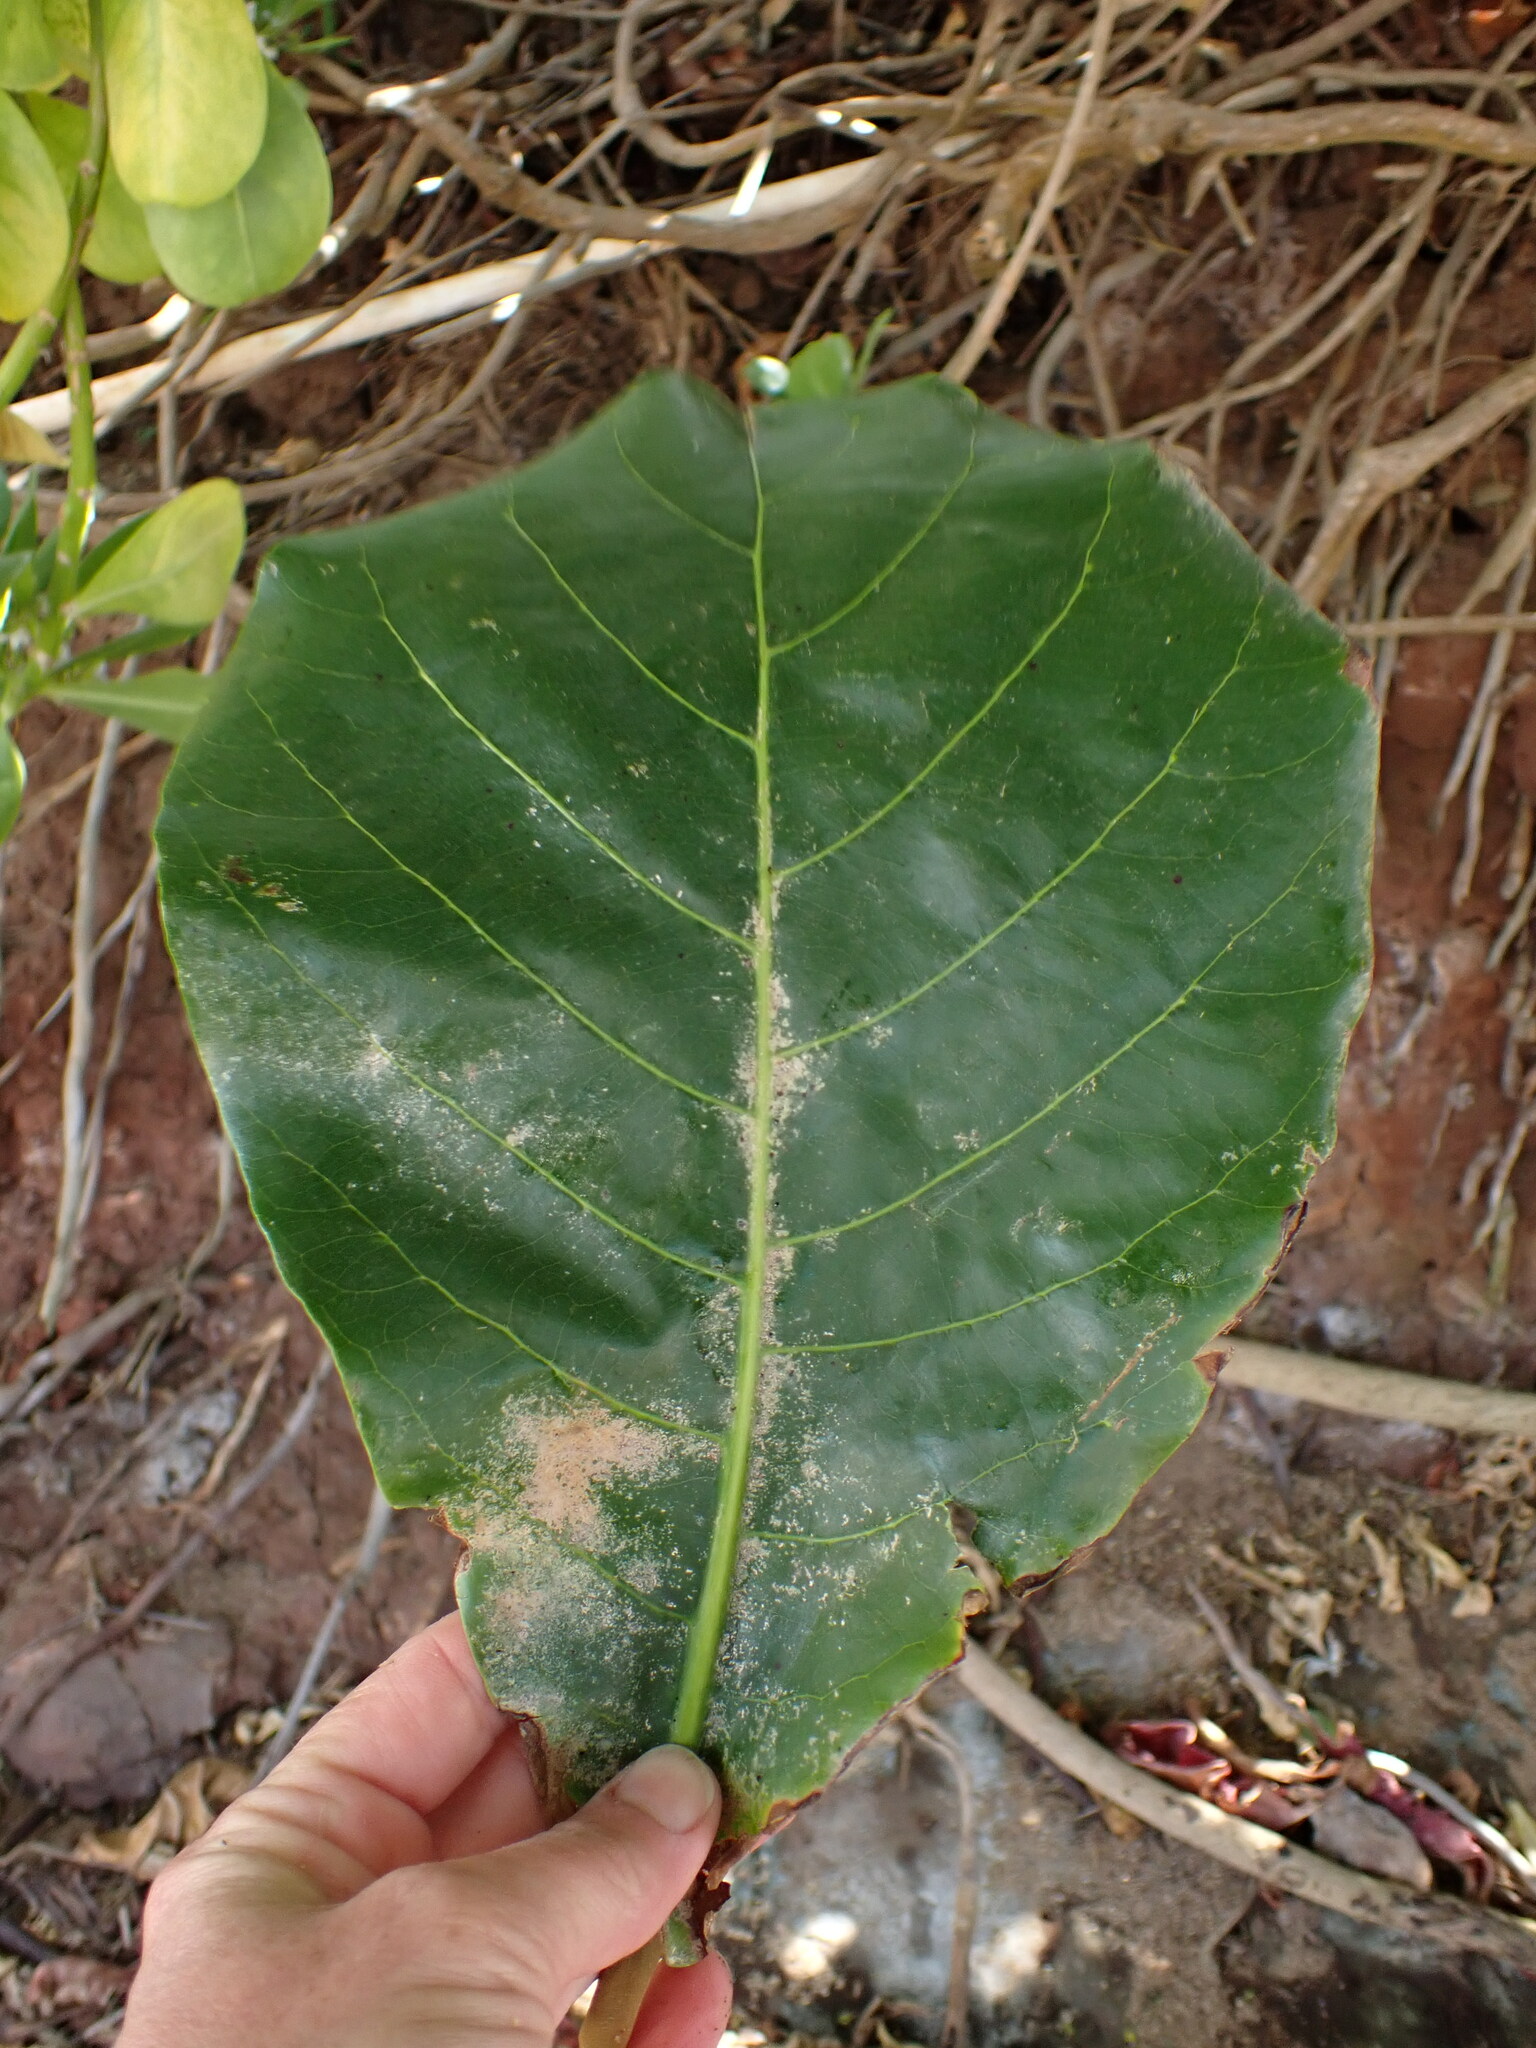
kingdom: Plantae
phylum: Tracheophyta
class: Magnoliopsida
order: Myrtales
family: Combretaceae
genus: Terminalia
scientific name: Terminalia catappa
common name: Tropical almond
